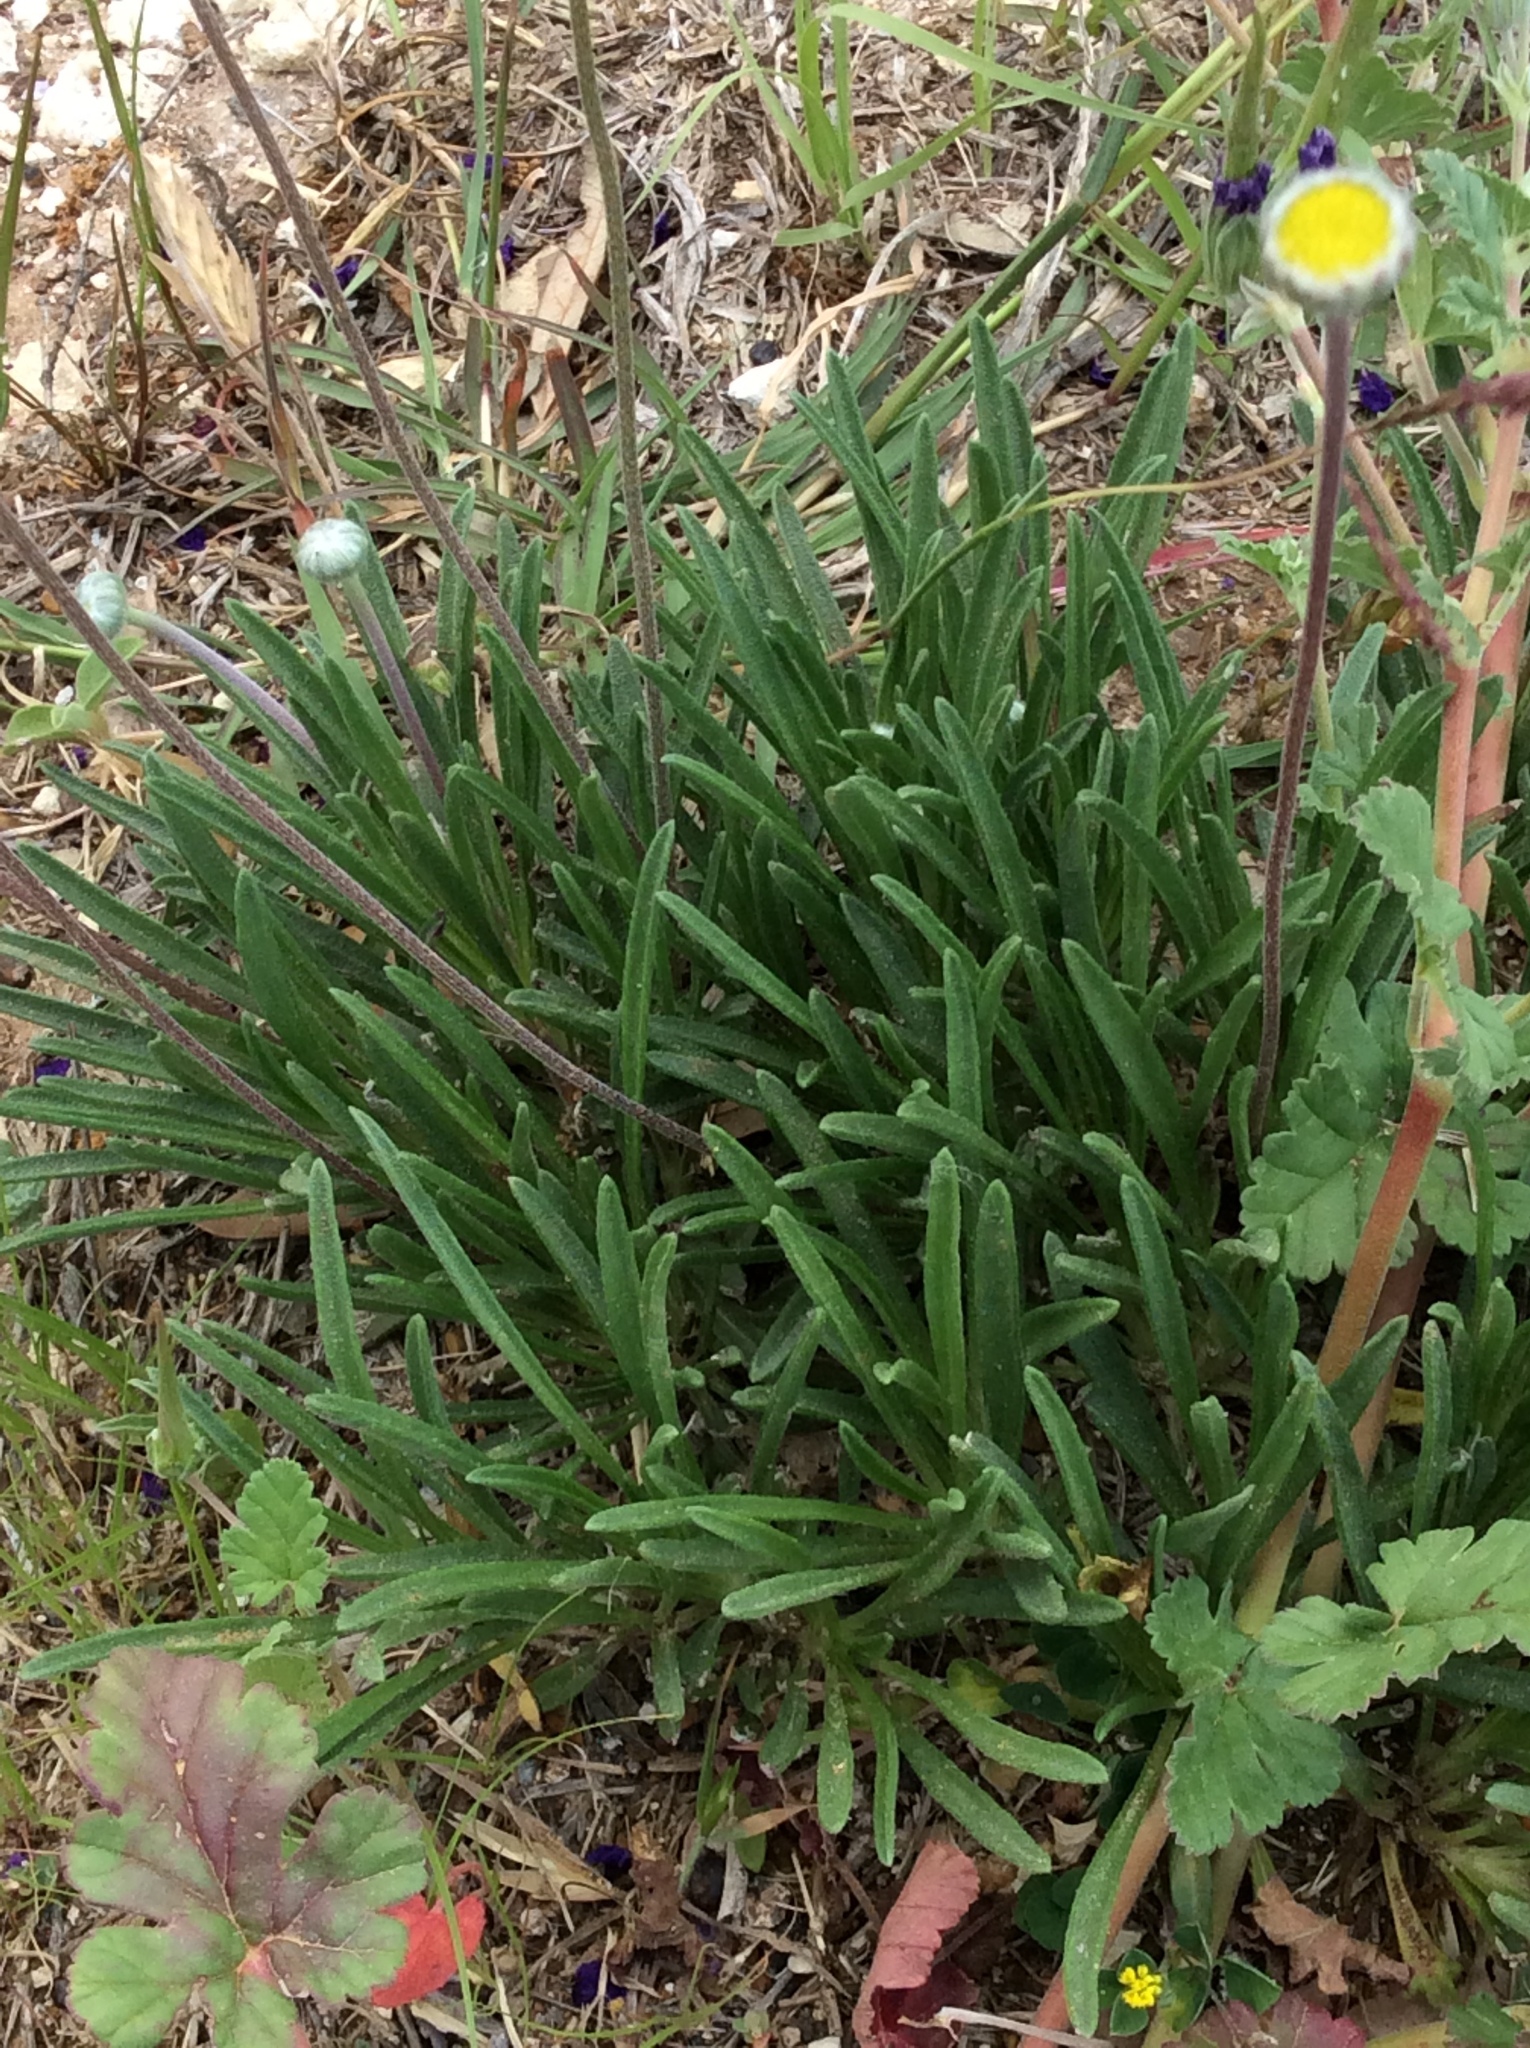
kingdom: Plantae
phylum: Tracheophyta
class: Magnoliopsida
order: Asterales
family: Asteraceae
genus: Tetraneuris
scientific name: Tetraneuris scaposa
